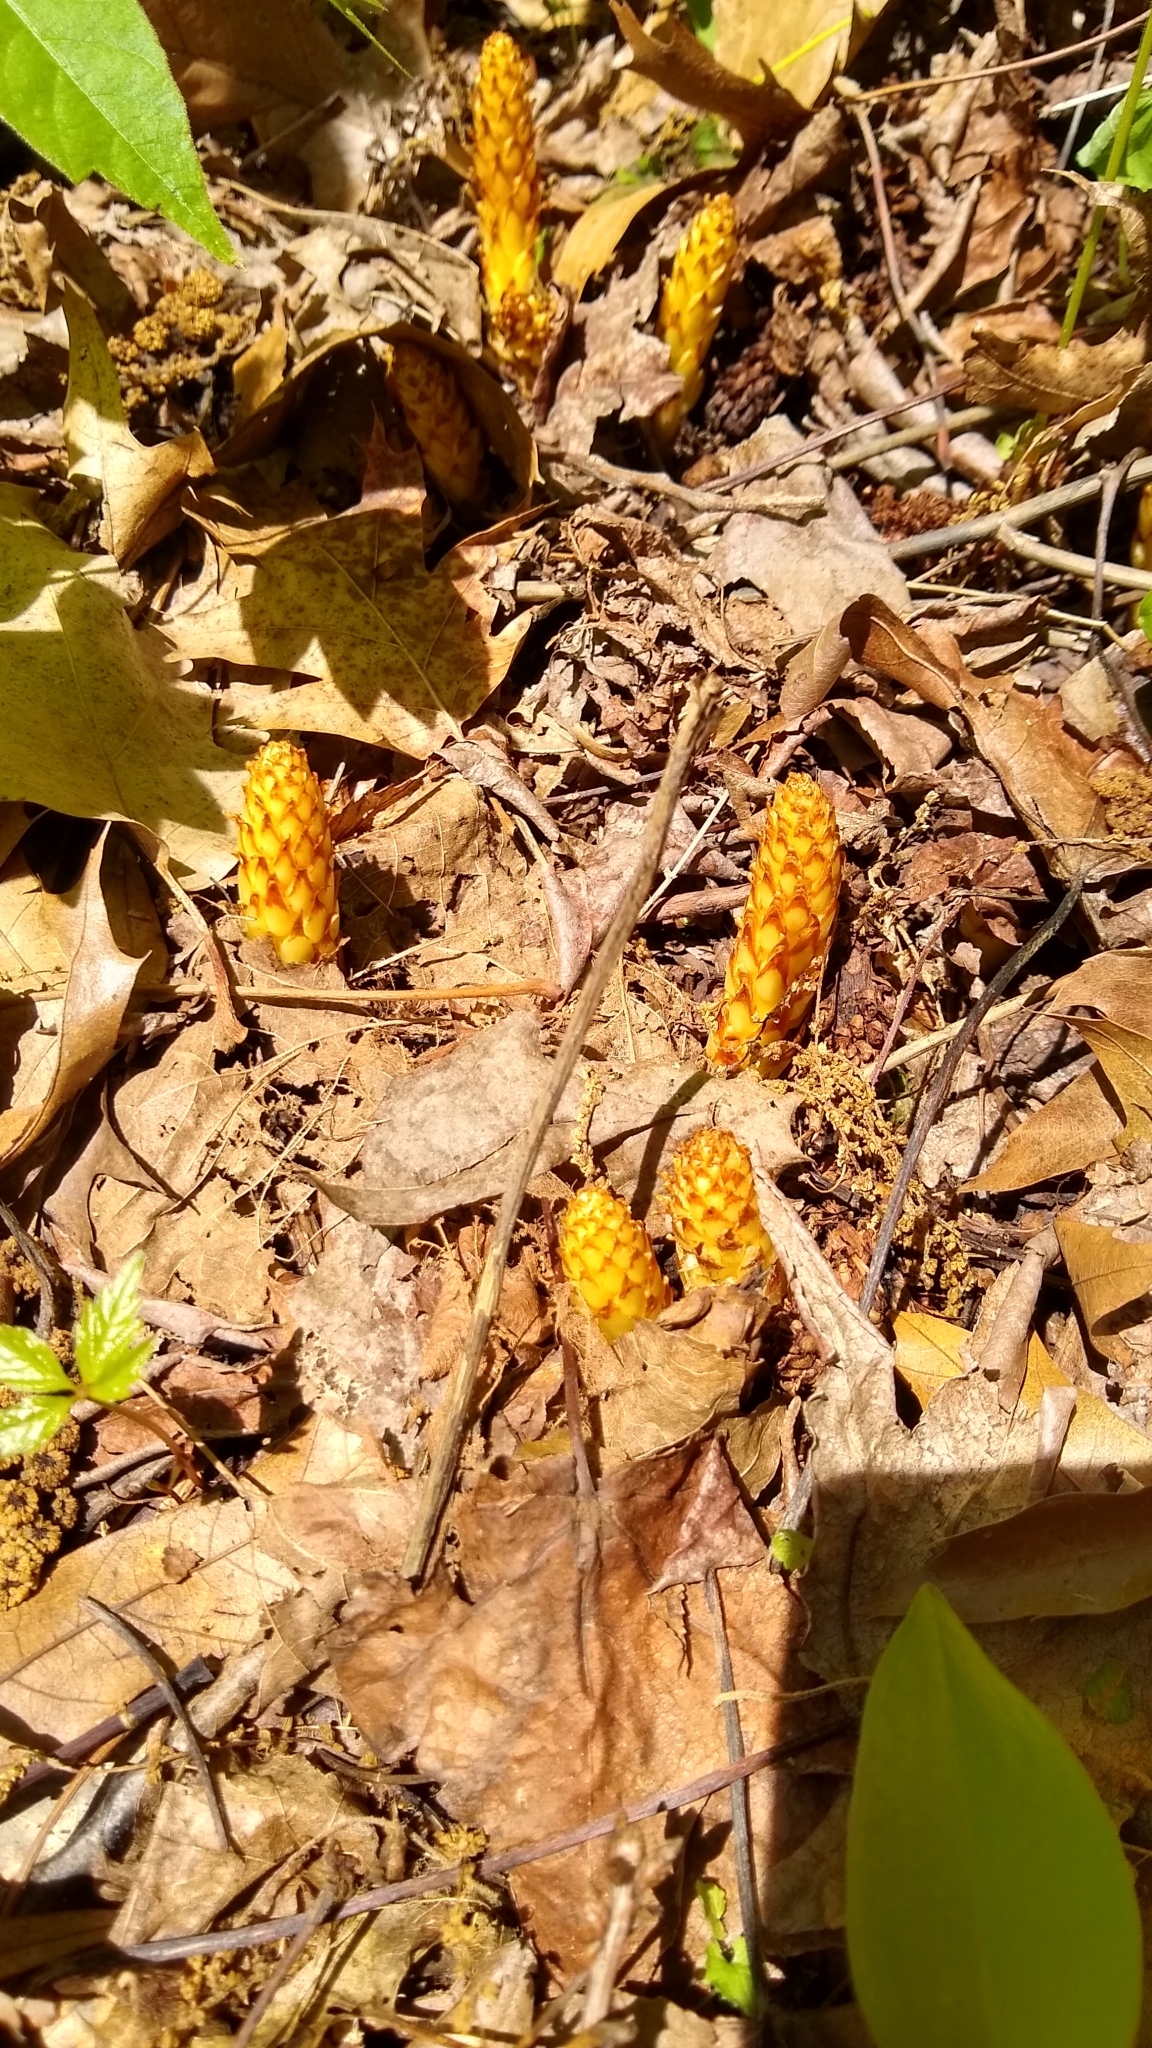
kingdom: Plantae
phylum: Tracheophyta
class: Magnoliopsida
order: Lamiales
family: Orobanchaceae
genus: Conopholis
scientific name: Conopholis americana
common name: American cancer-root
